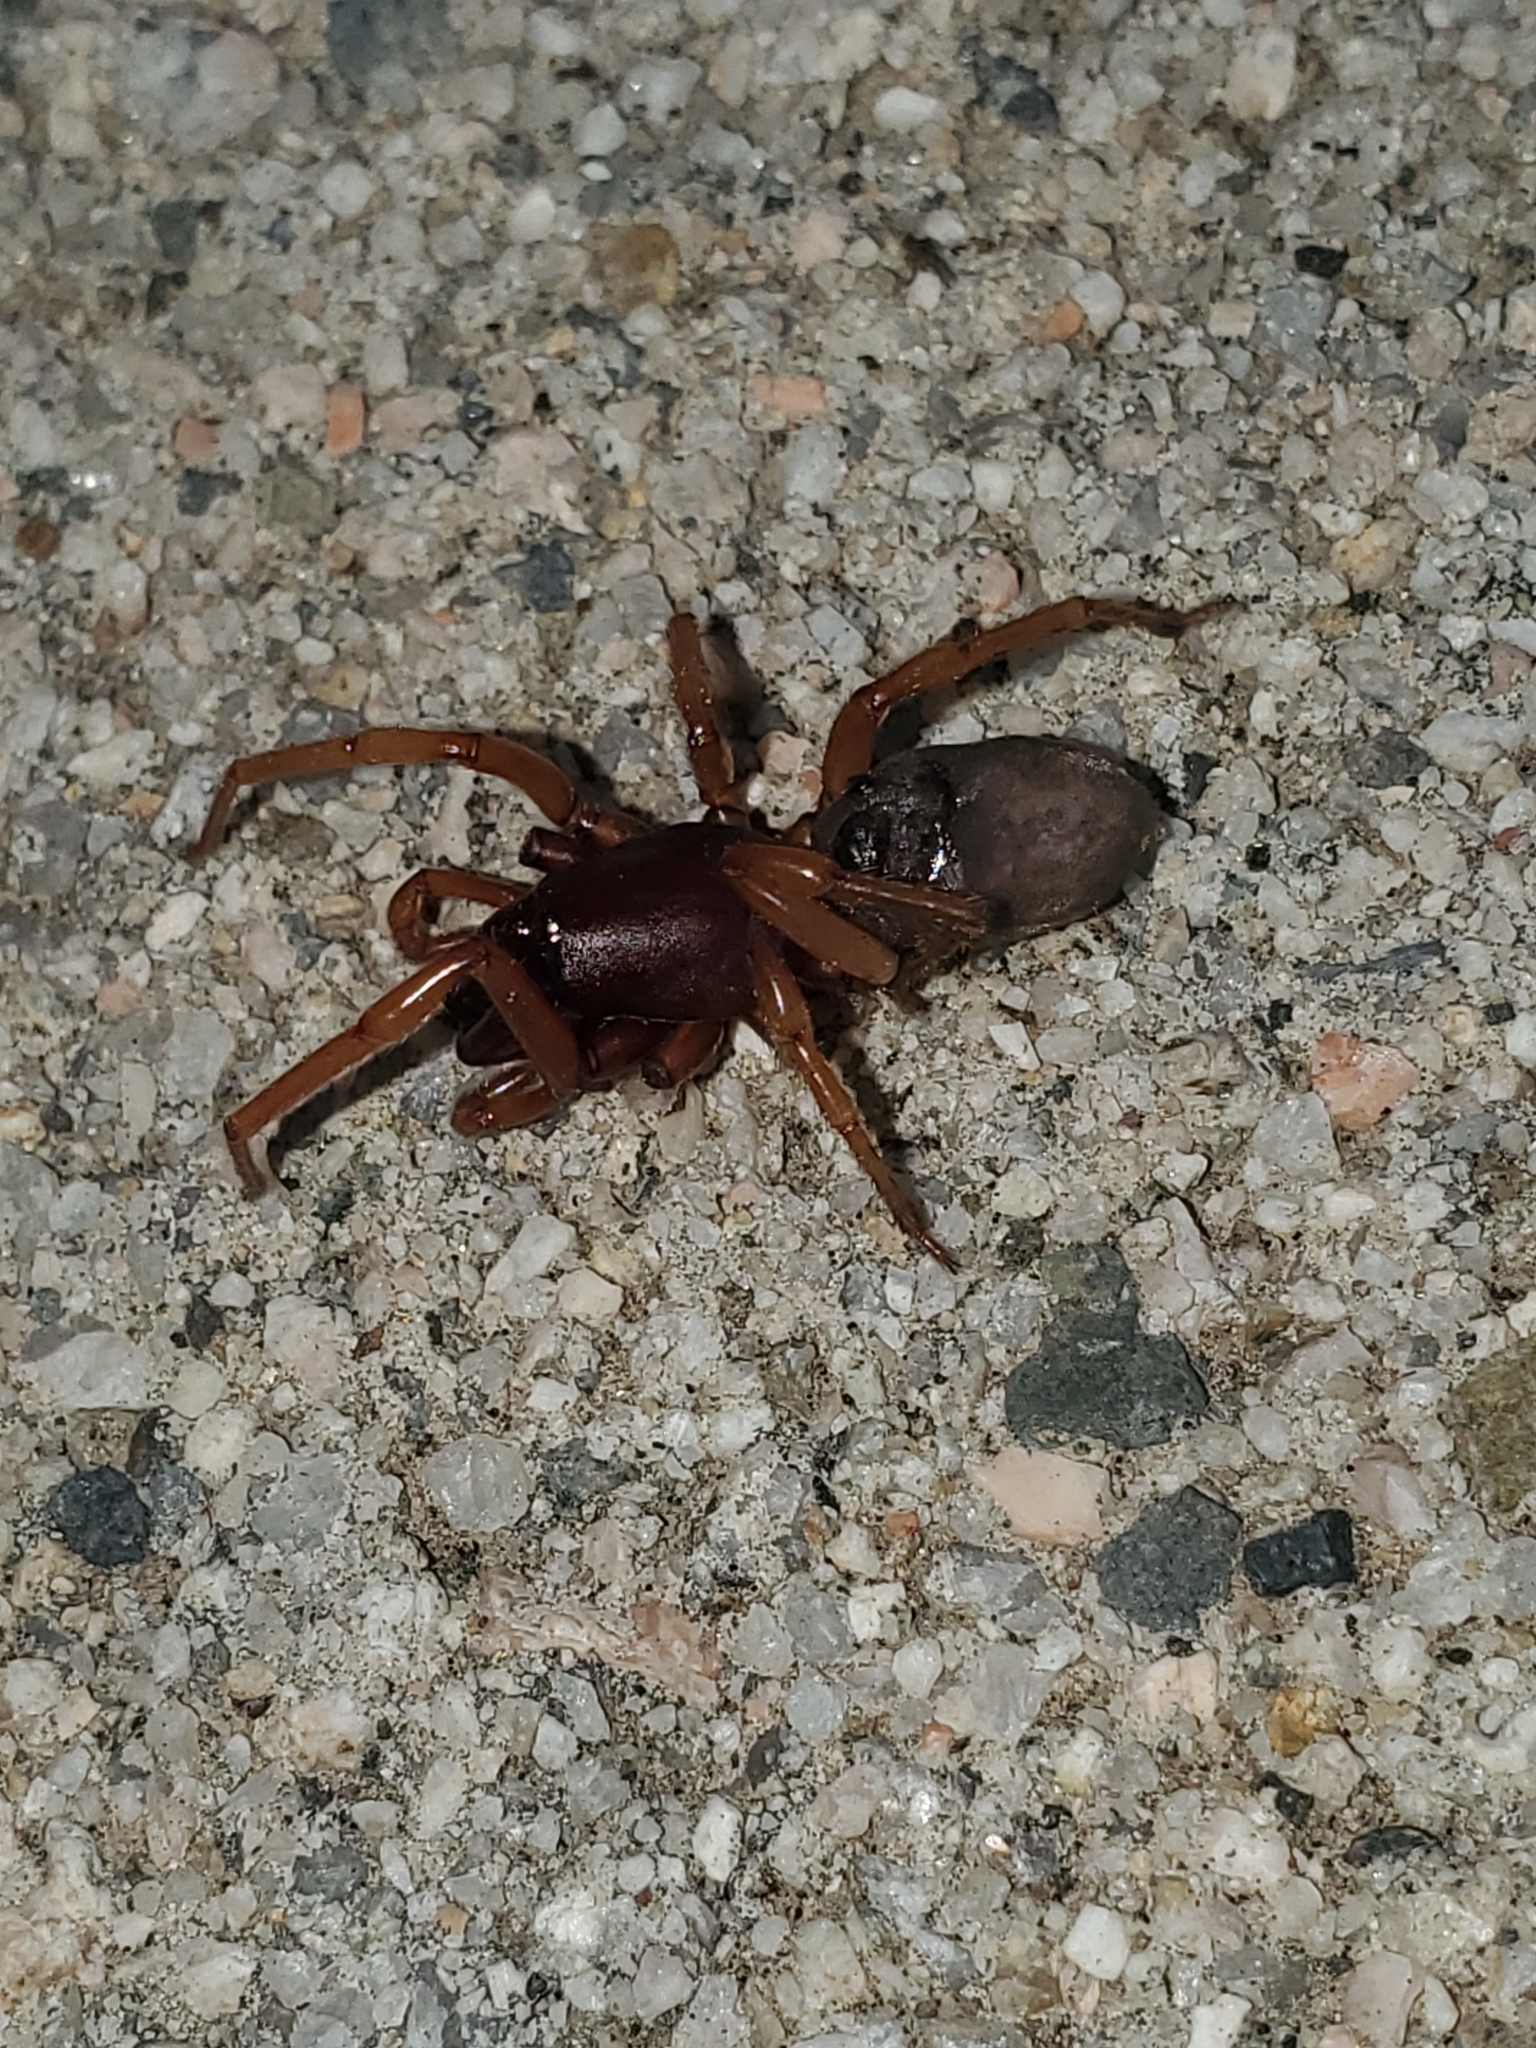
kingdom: Animalia
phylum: Arthropoda
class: Arachnida
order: Araneae
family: Dysderidae
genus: Dysdera
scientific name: Dysdera crocata
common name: Woodlouse spider
